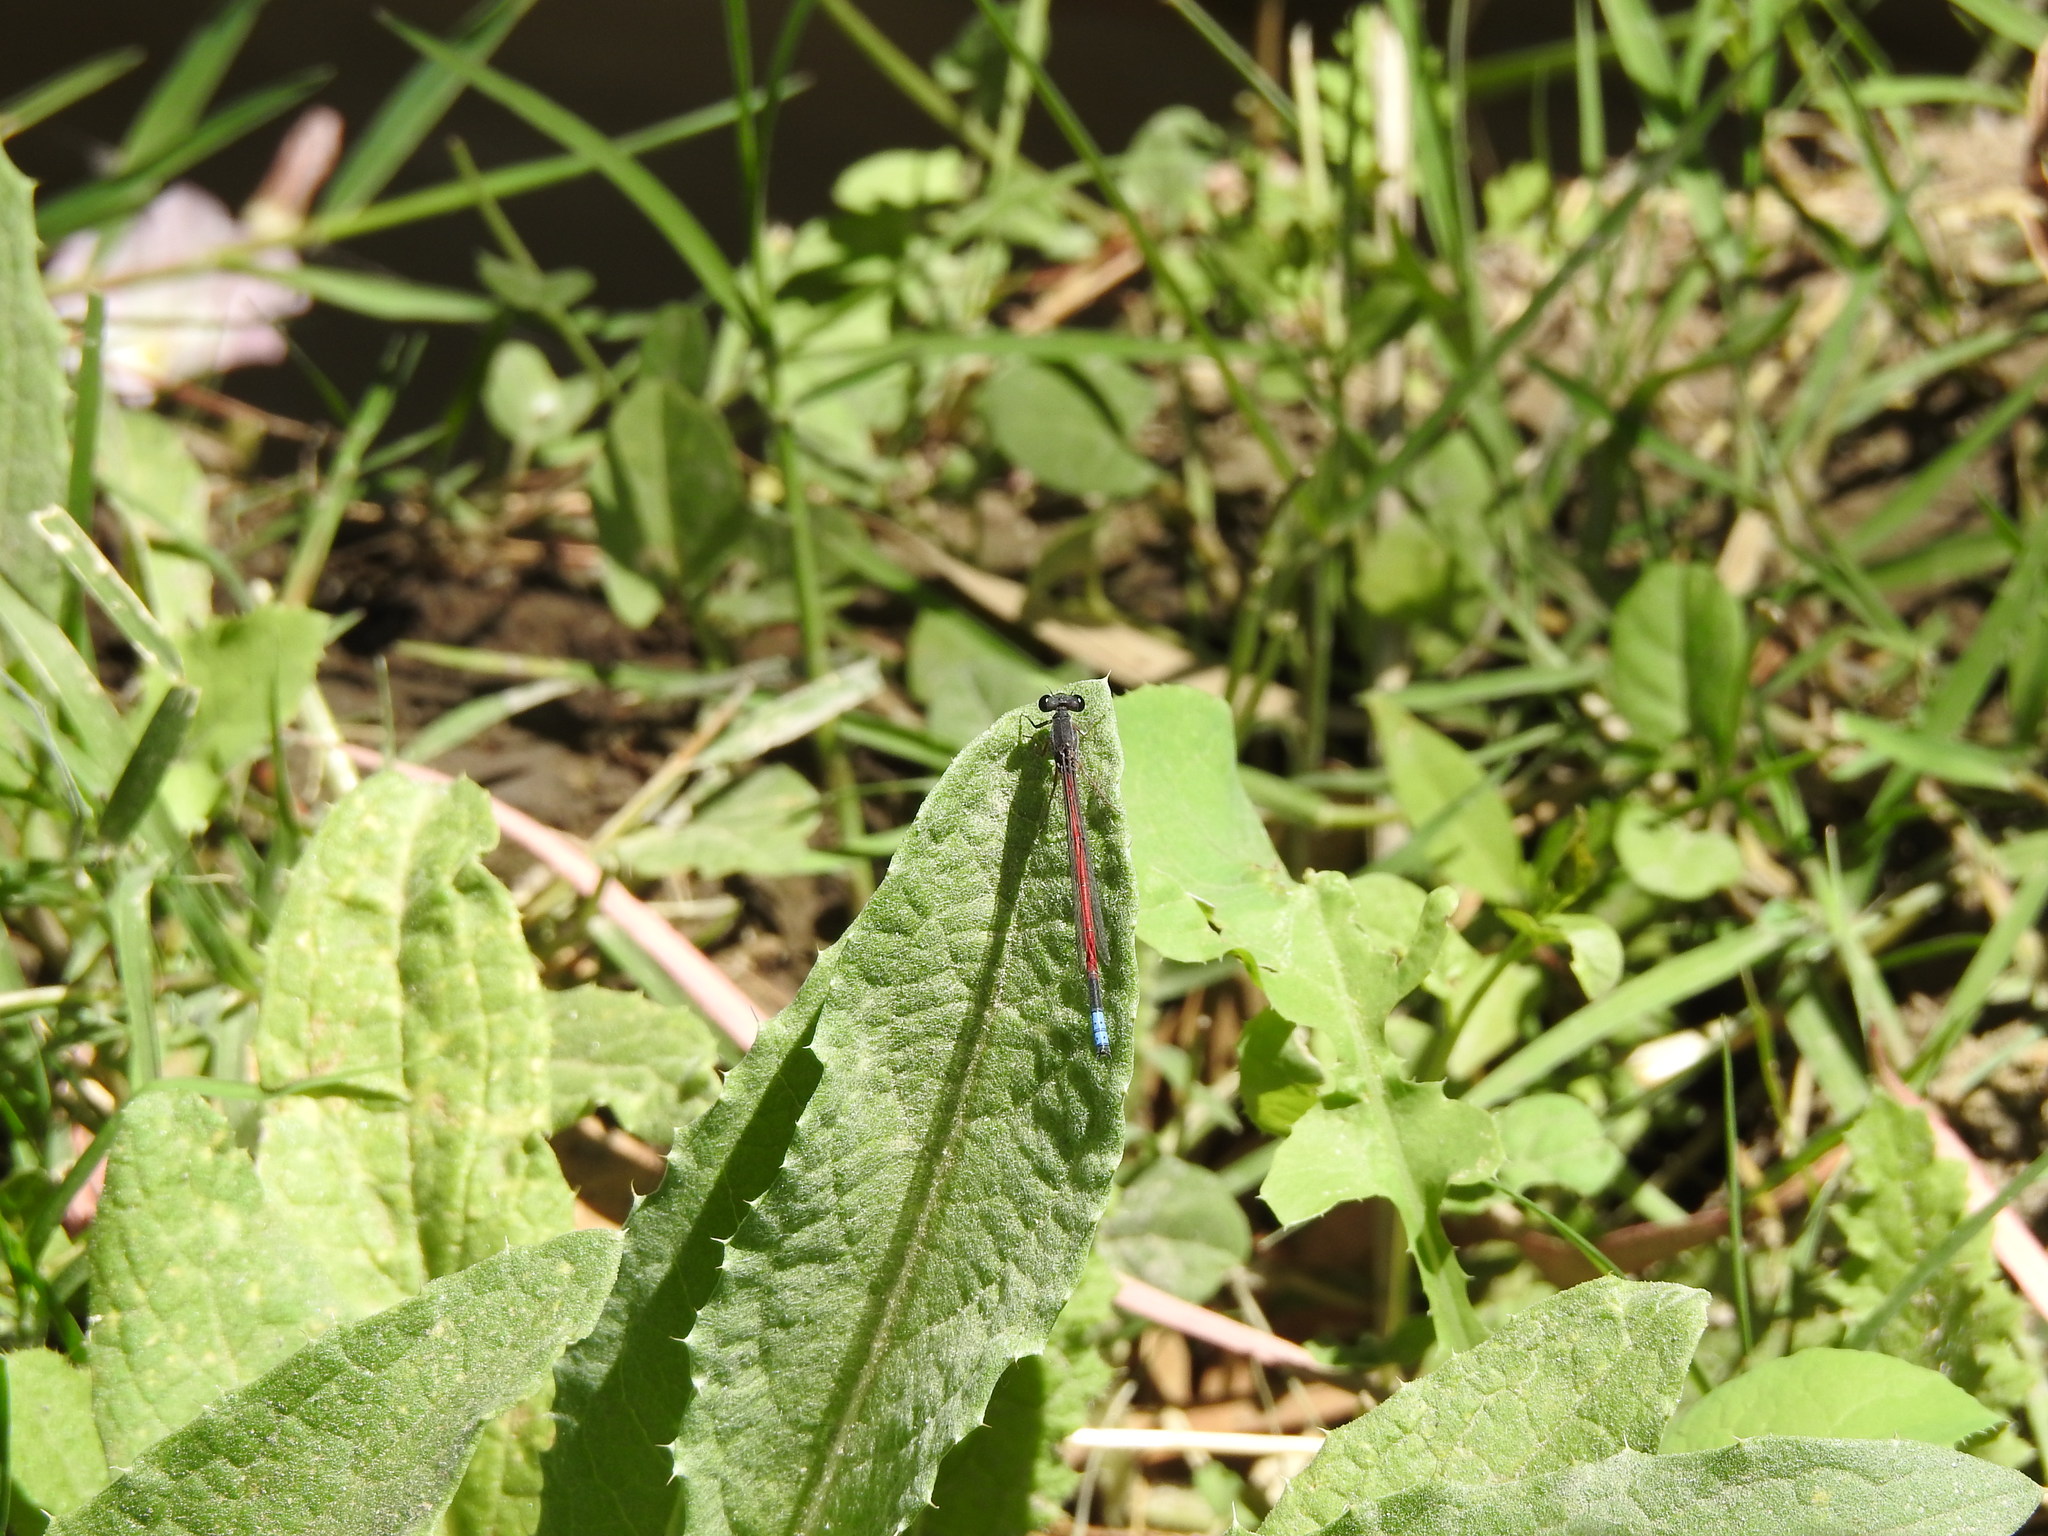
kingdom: Animalia
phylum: Arthropoda
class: Insecta
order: Odonata
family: Coenagrionidae
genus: Oxyagrion
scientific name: Oxyagrion hempeli
